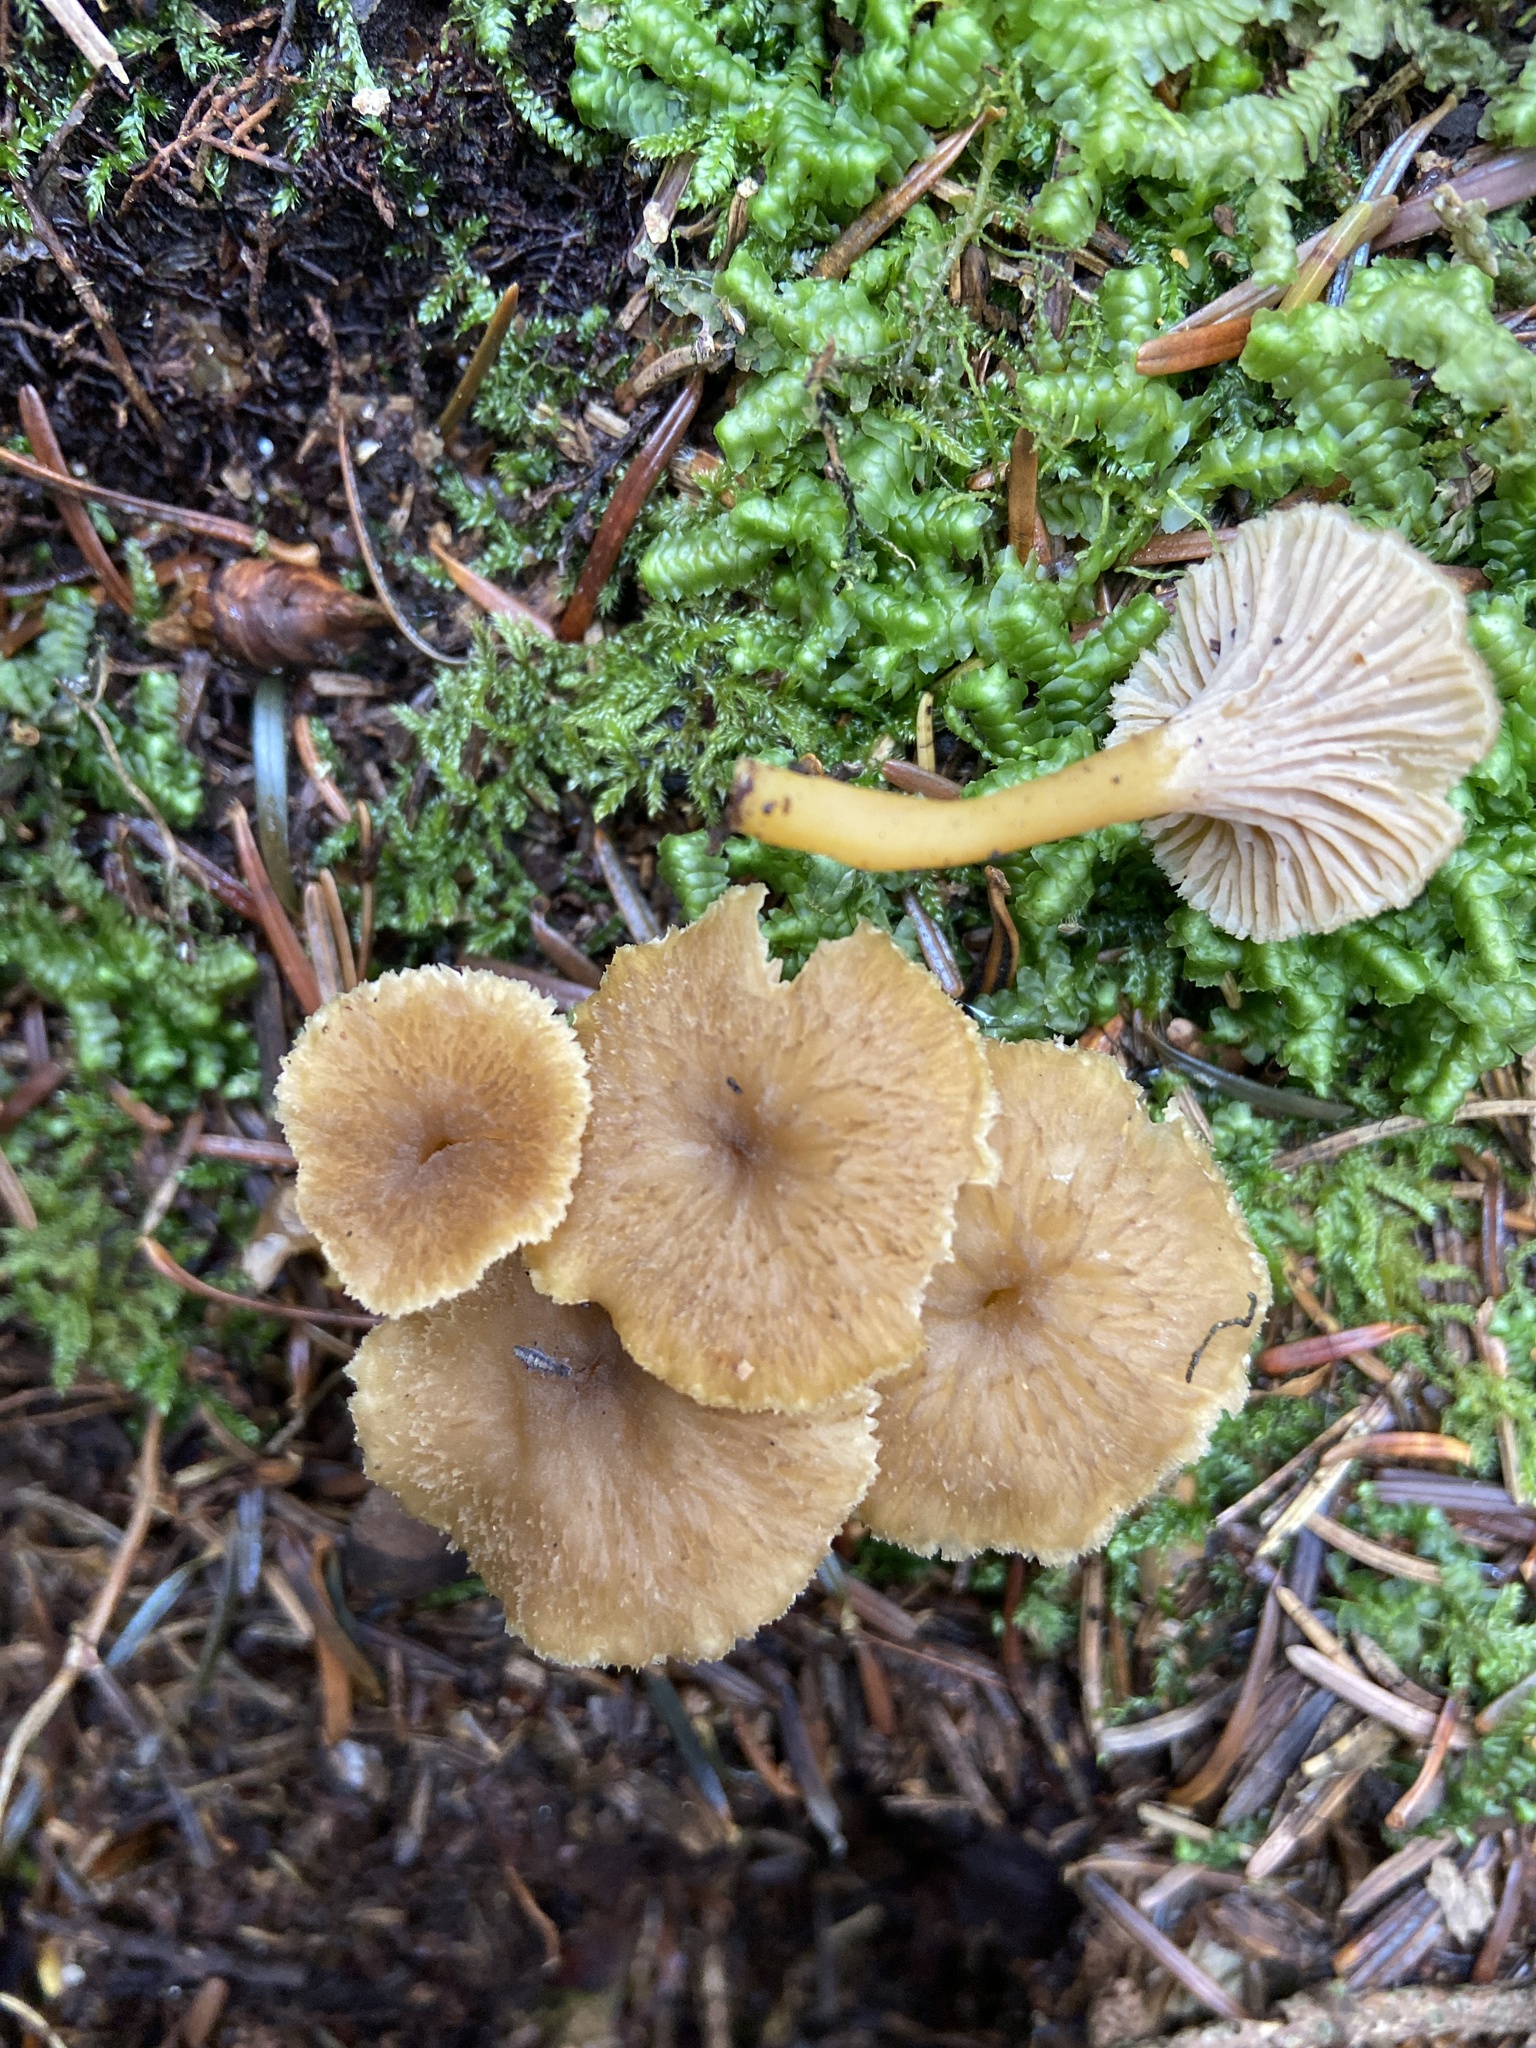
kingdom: Fungi
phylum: Basidiomycota
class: Agaricomycetes
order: Cantharellales
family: Hydnaceae
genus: Craterellus
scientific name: Craterellus tubaeformis
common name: Yellowfoot
